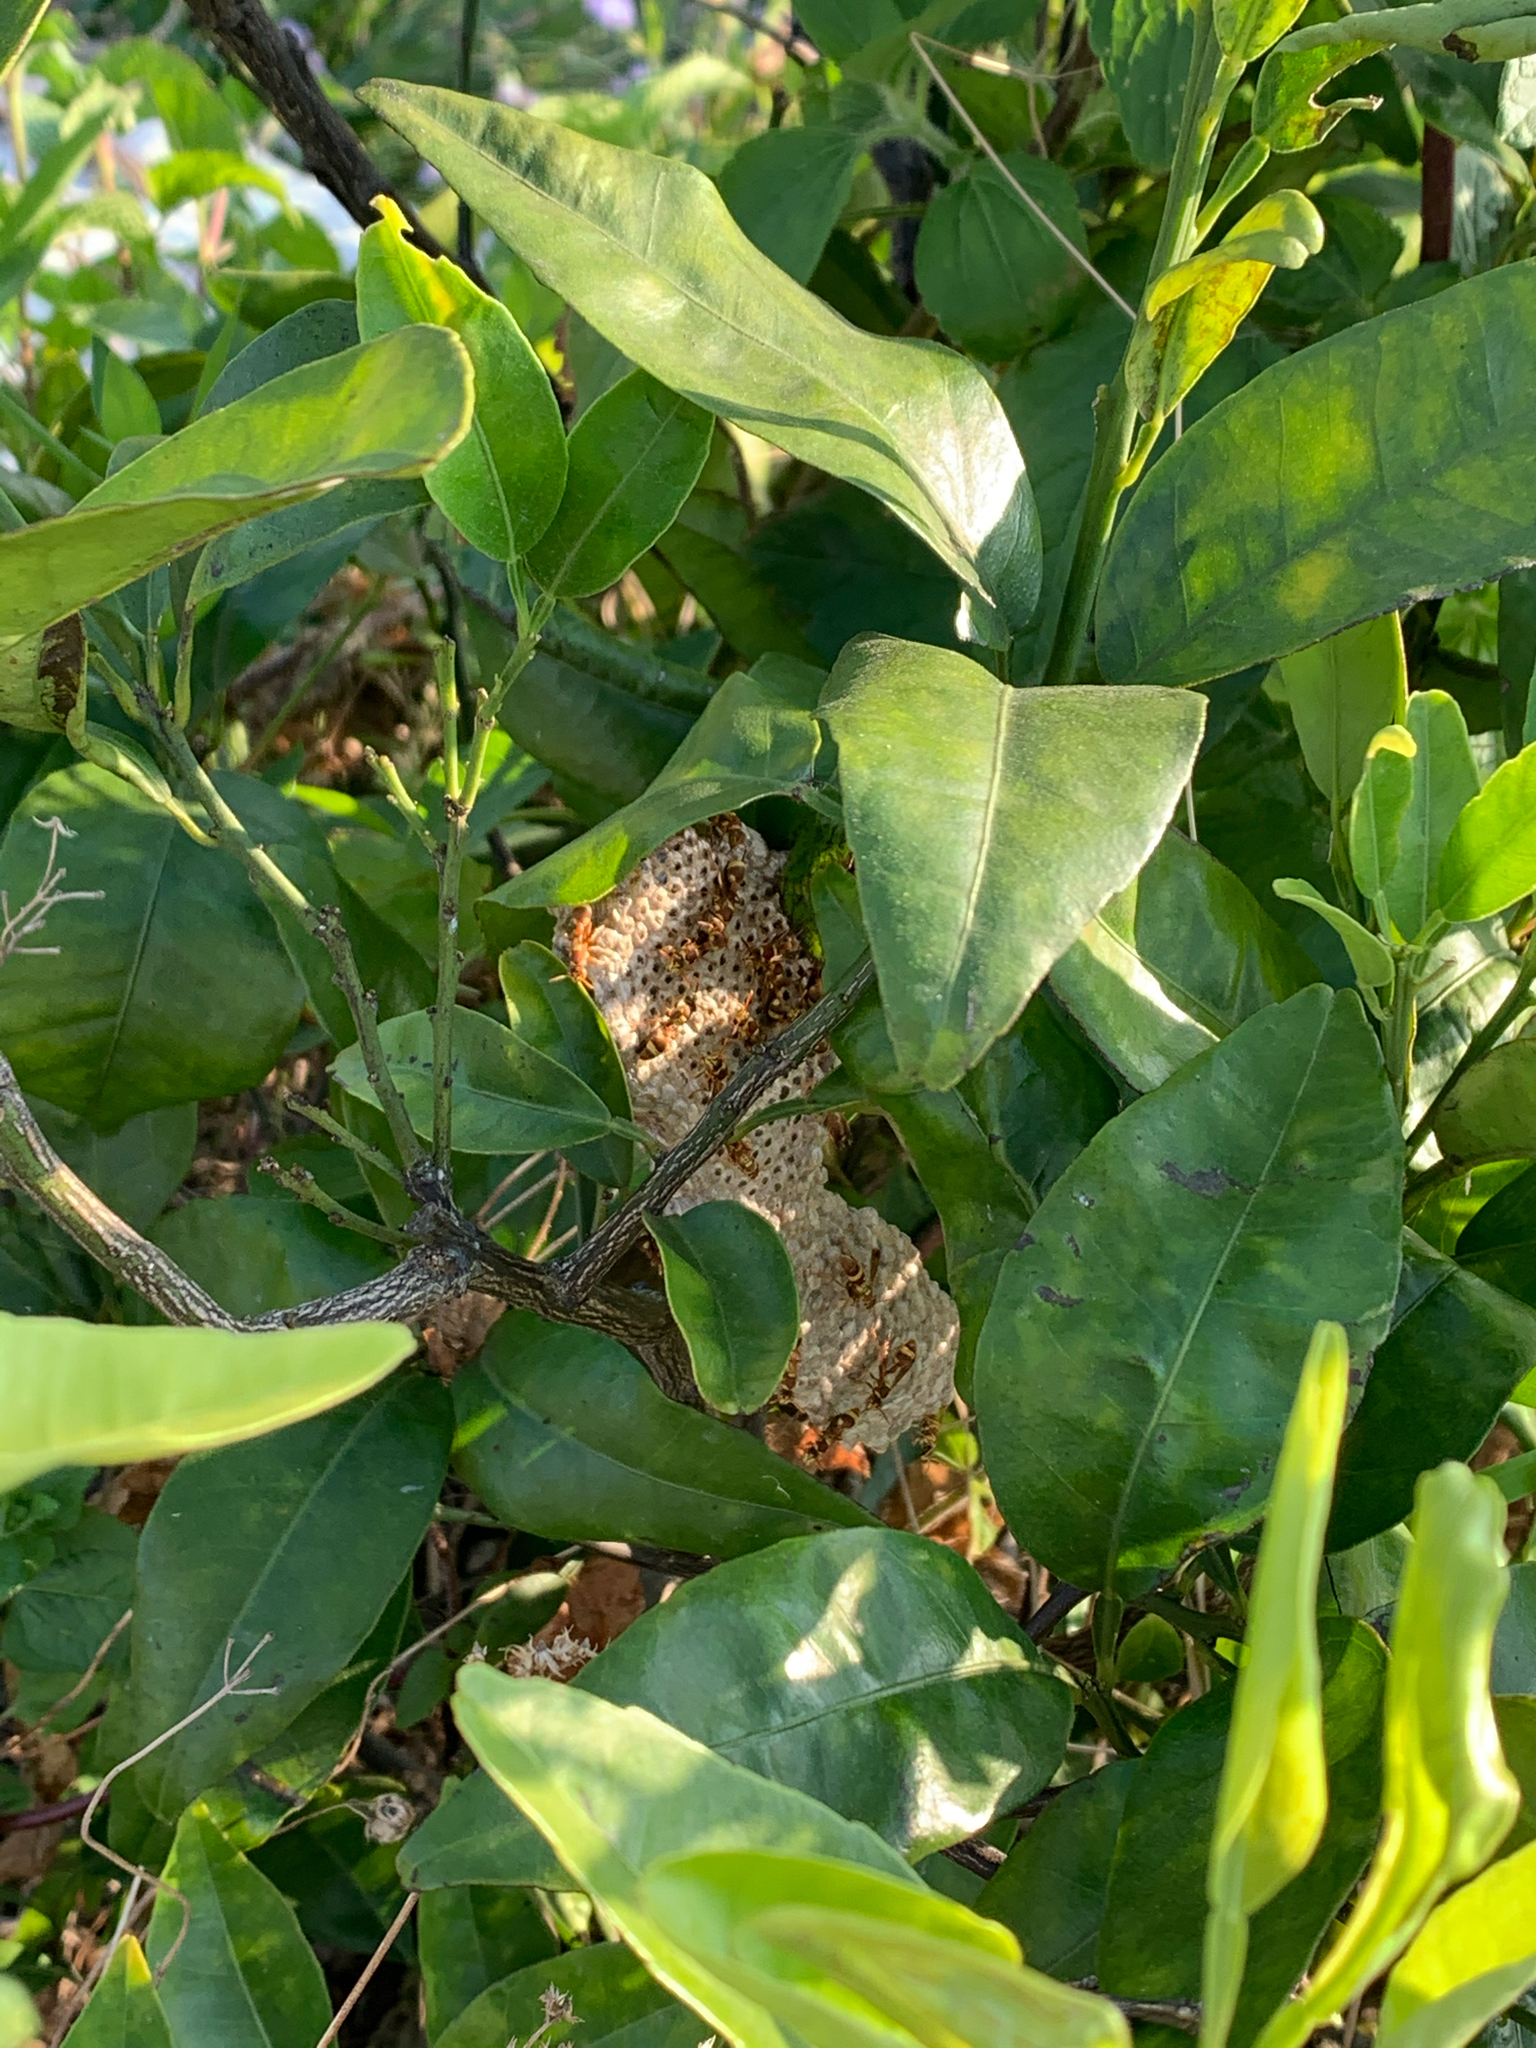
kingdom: Animalia
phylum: Arthropoda
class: Insecta
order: Hymenoptera
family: Vespidae
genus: Ropalidia
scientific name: Ropalidia fasciata
